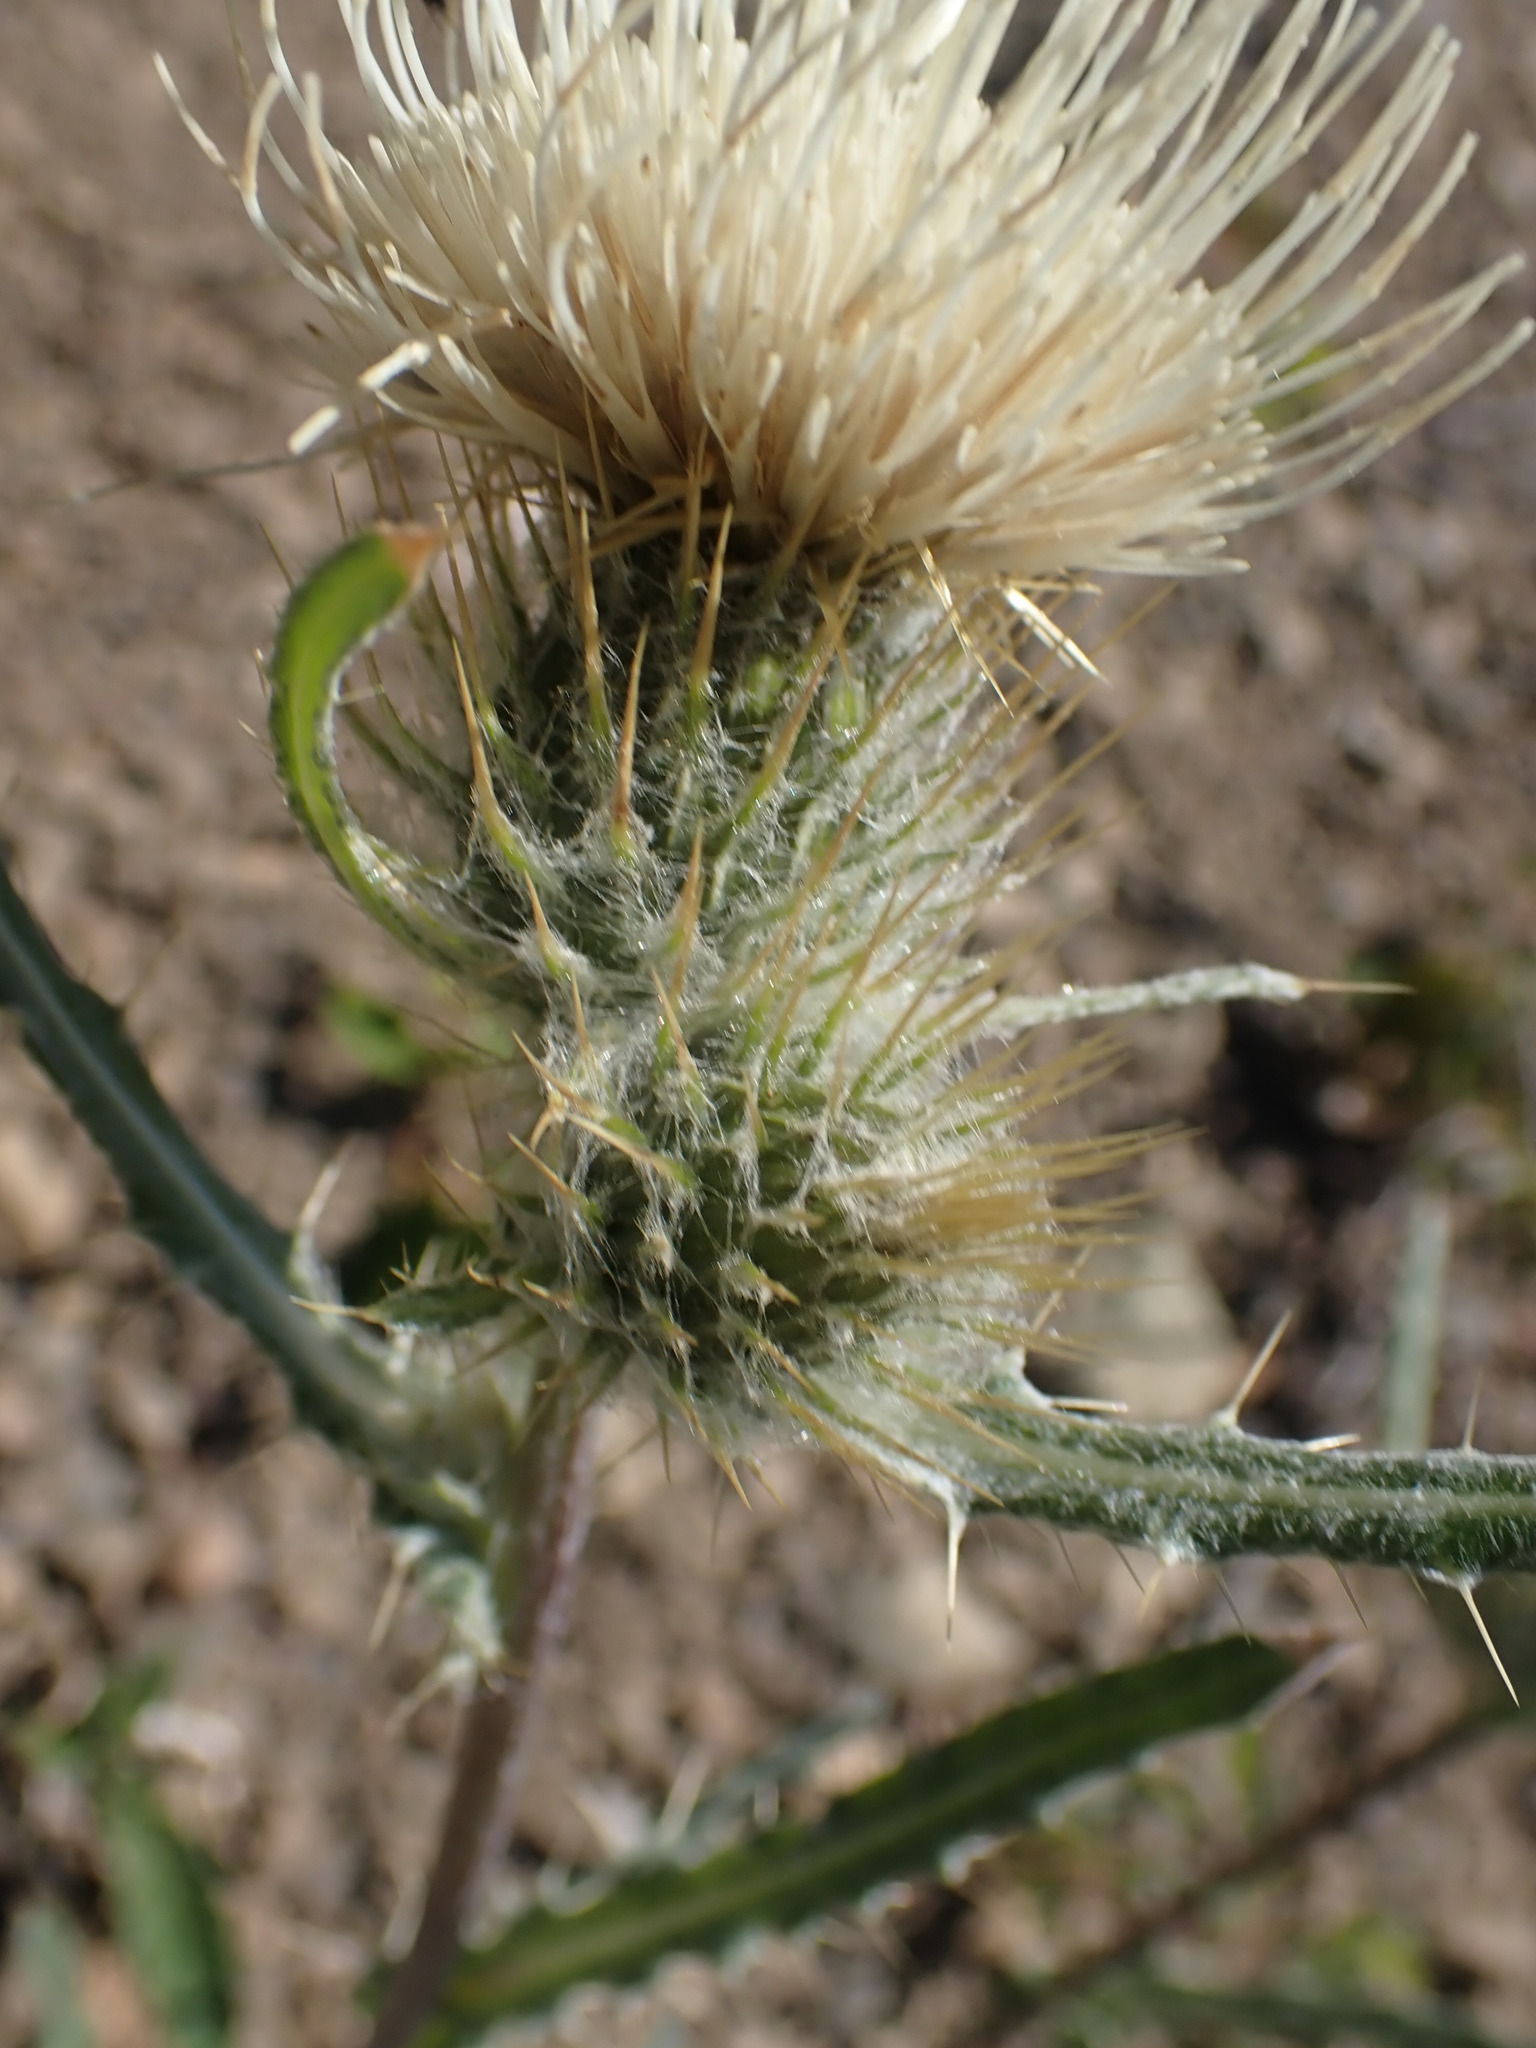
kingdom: Plantae
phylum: Tracheophyta
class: Magnoliopsida
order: Asterales
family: Asteraceae
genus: Cirsium
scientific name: Cirsium hookerianum
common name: Hooker's thistle
